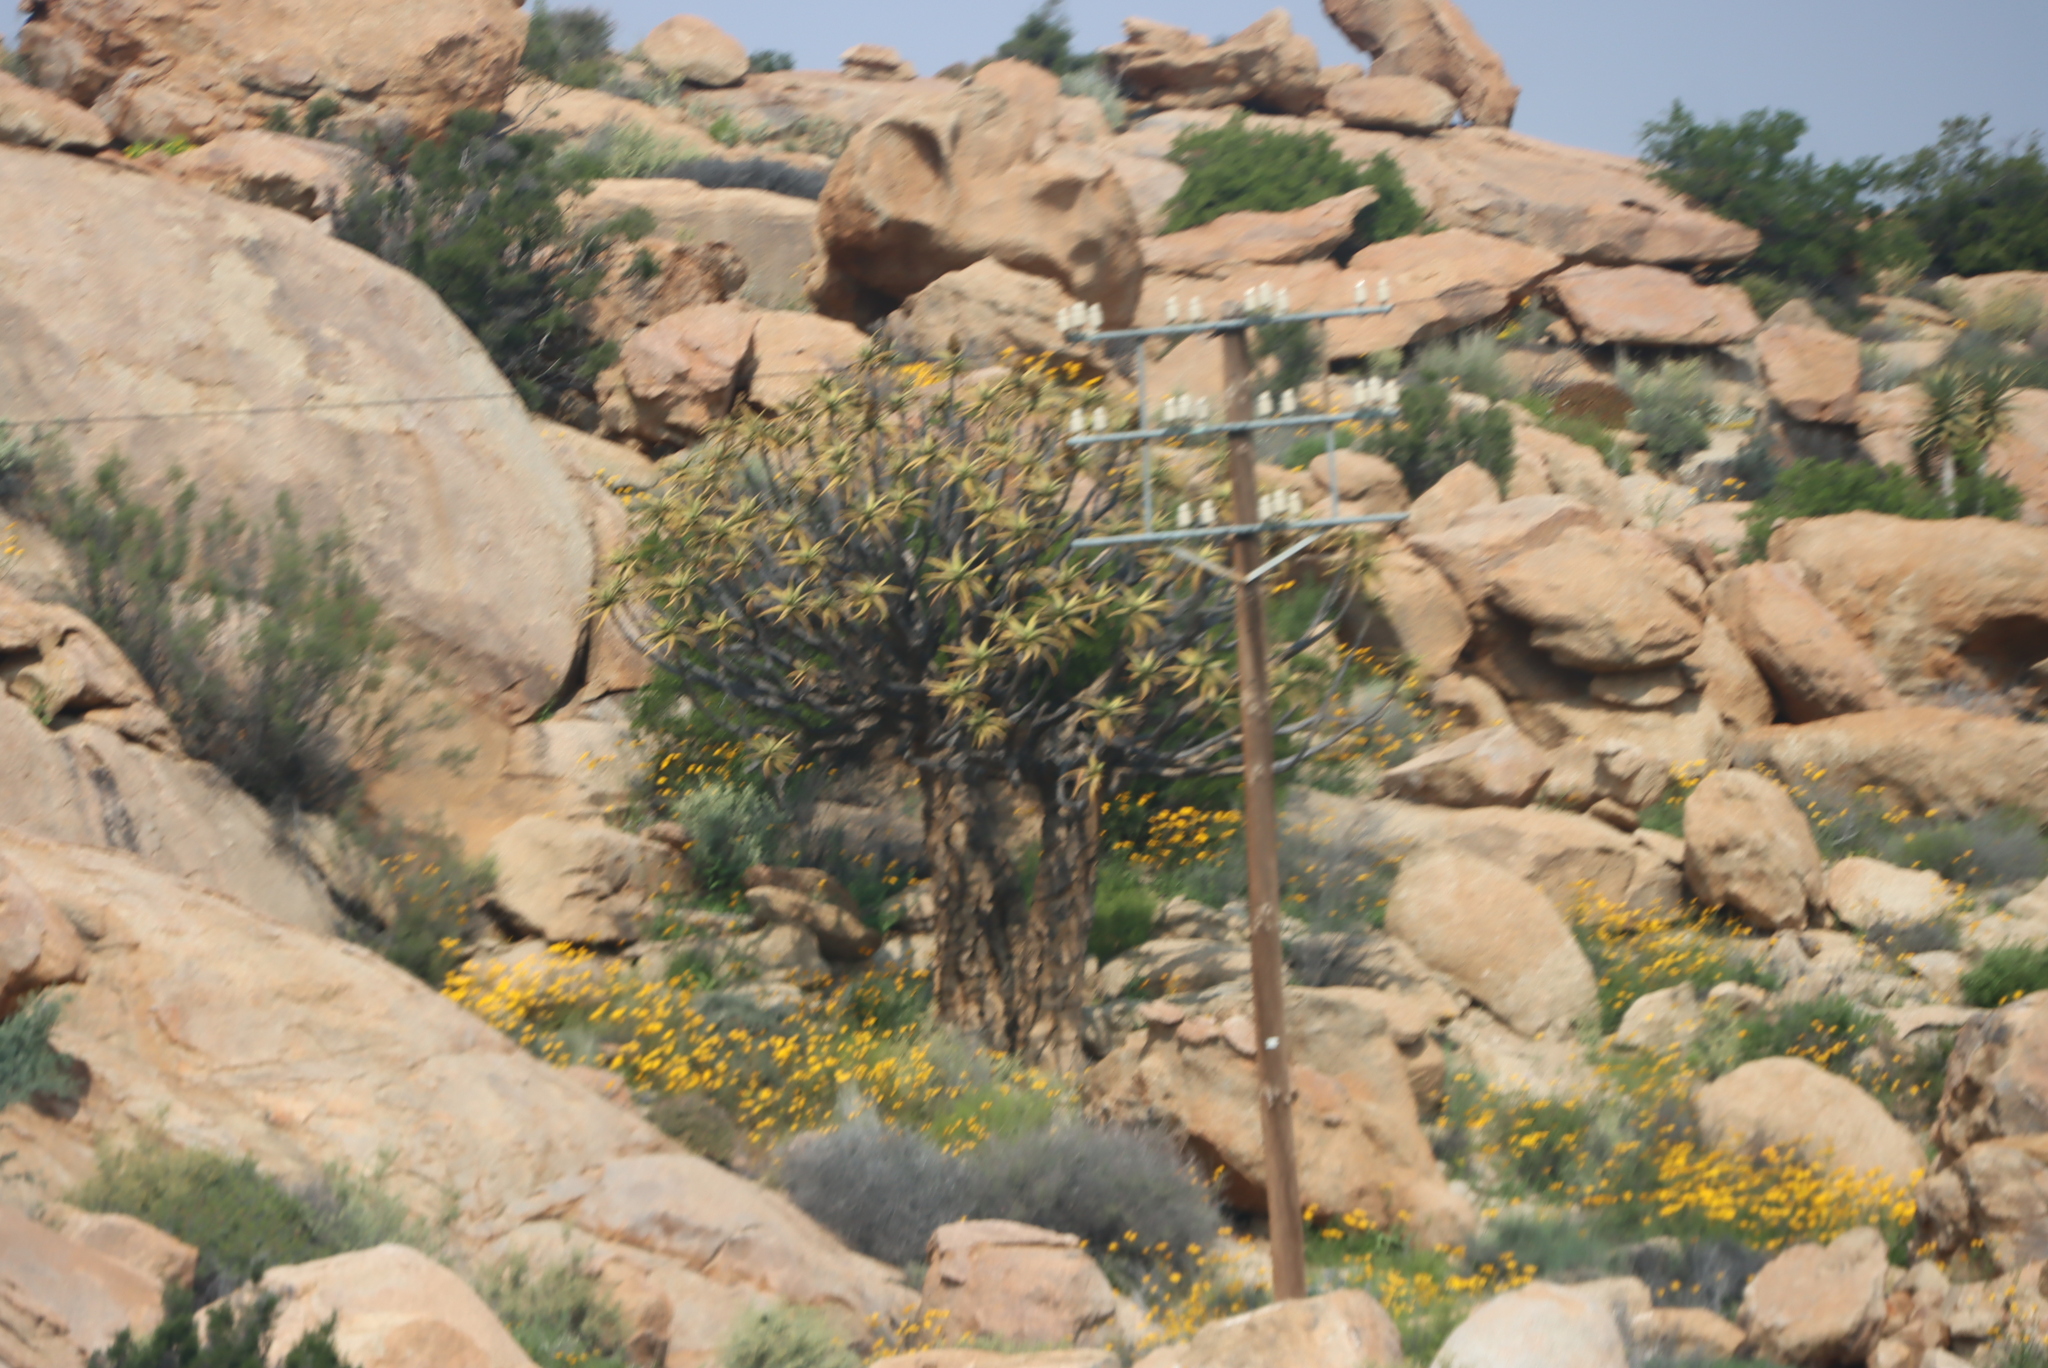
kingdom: Plantae
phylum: Tracheophyta
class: Liliopsida
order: Asparagales
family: Asphodelaceae
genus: Aloidendron
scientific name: Aloidendron dichotomum
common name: Quiver tree
